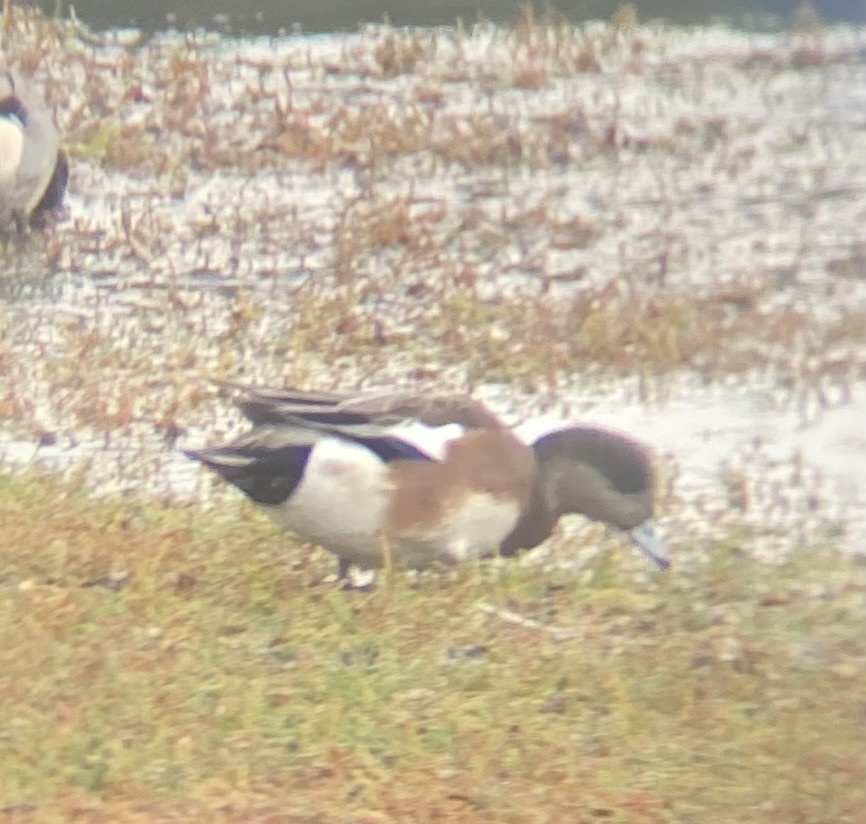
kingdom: Animalia
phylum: Chordata
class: Aves
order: Anseriformes
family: Anatidae
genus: Mareca
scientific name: Mareca americana
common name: American wigeon
